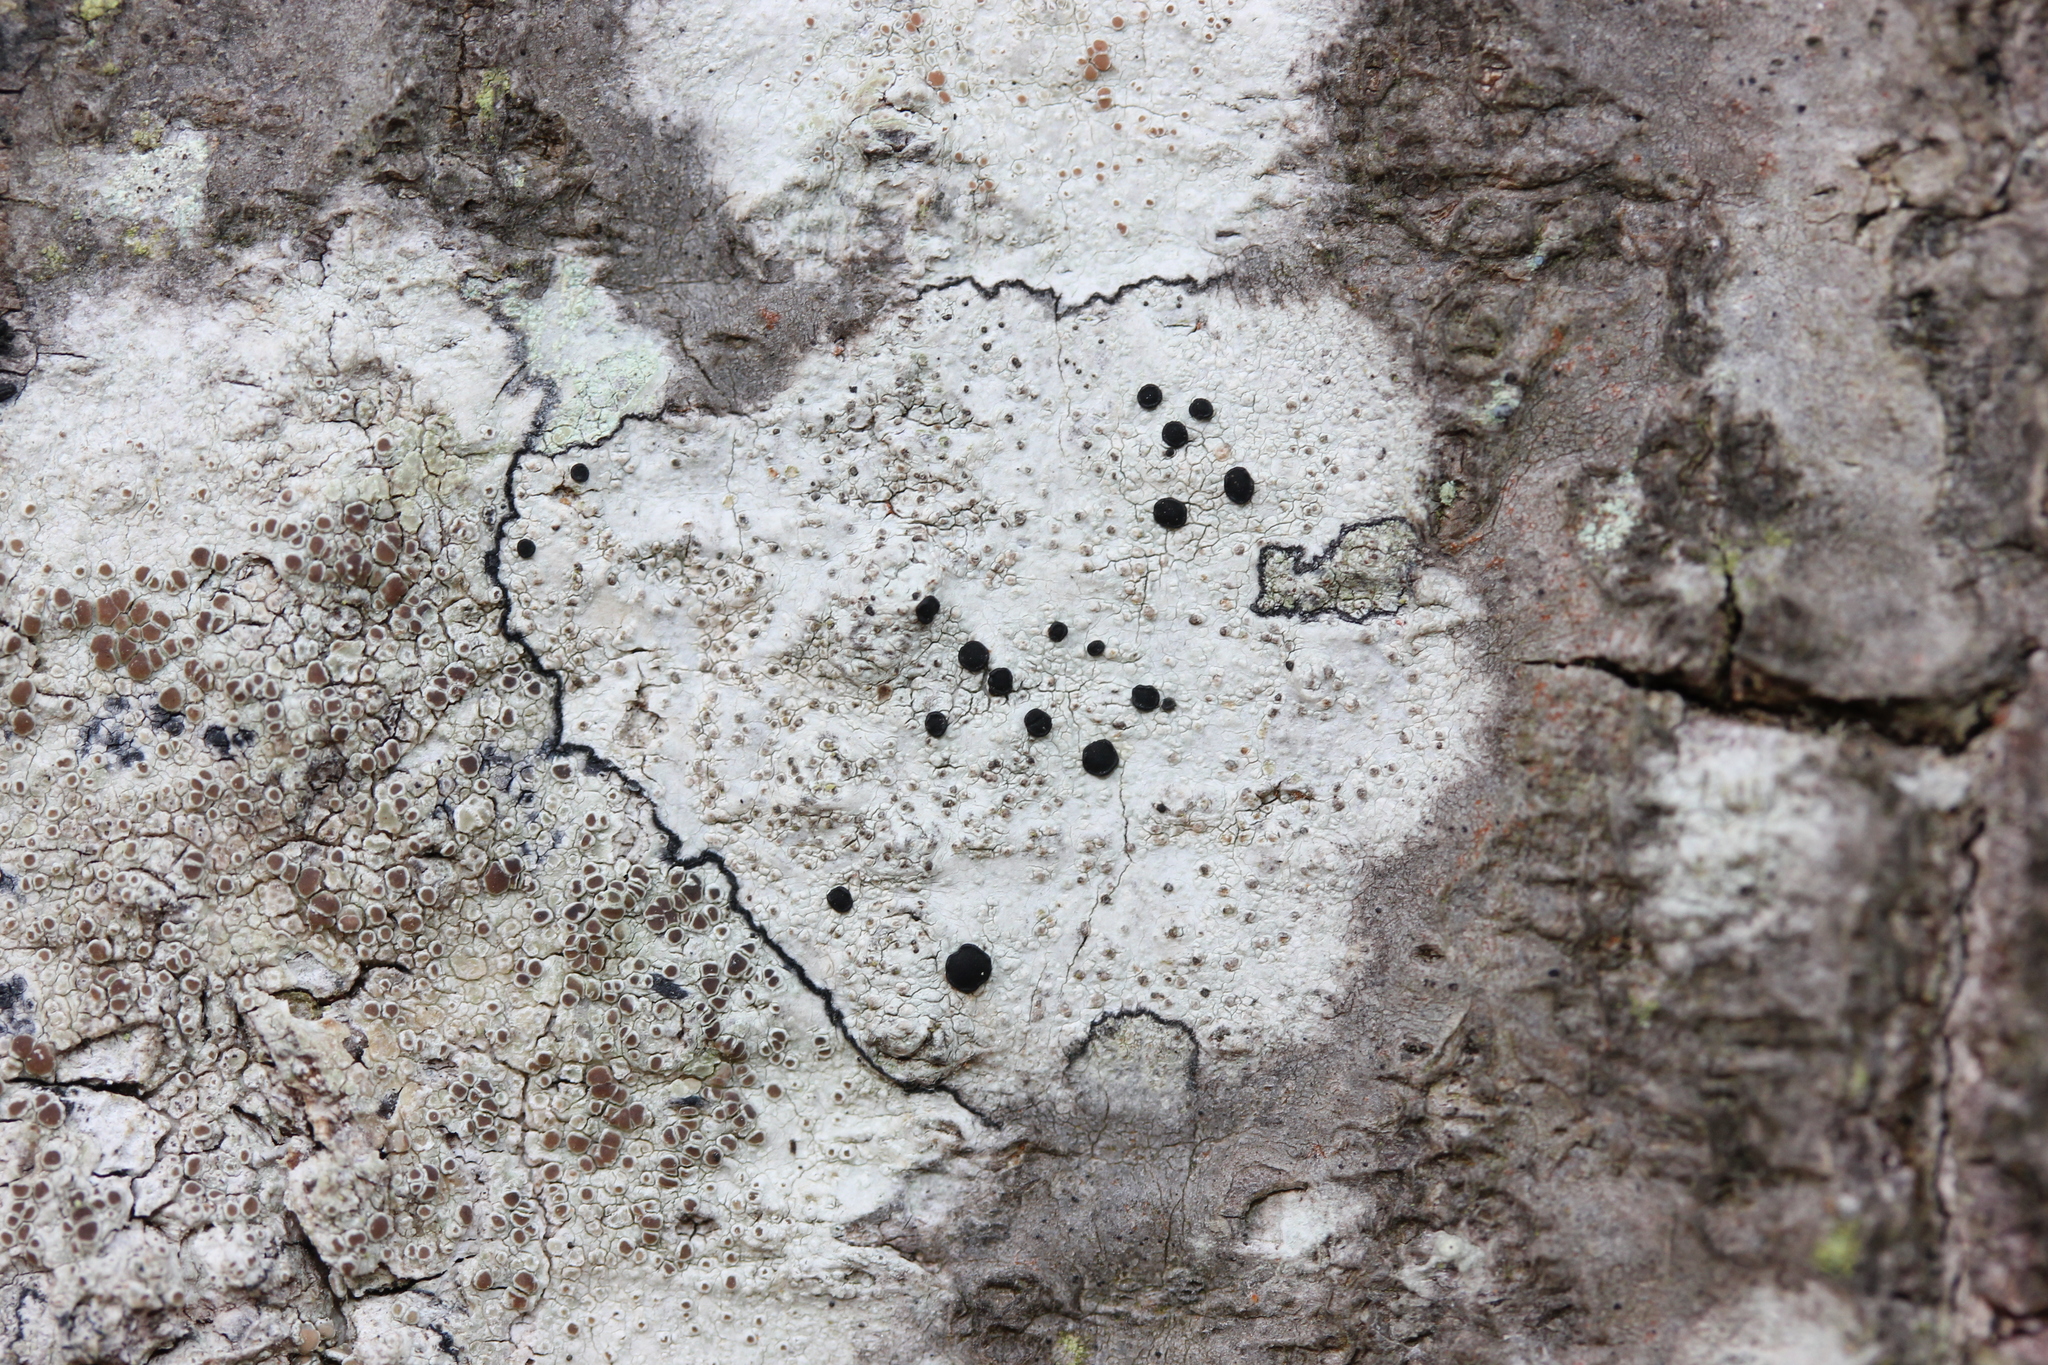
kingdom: Fungi
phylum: Ascomycota
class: Lecanoromycetes
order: Caliciales
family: Caliciaceae
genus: Buellia
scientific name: Buellia erubescens
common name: Common button lichen
